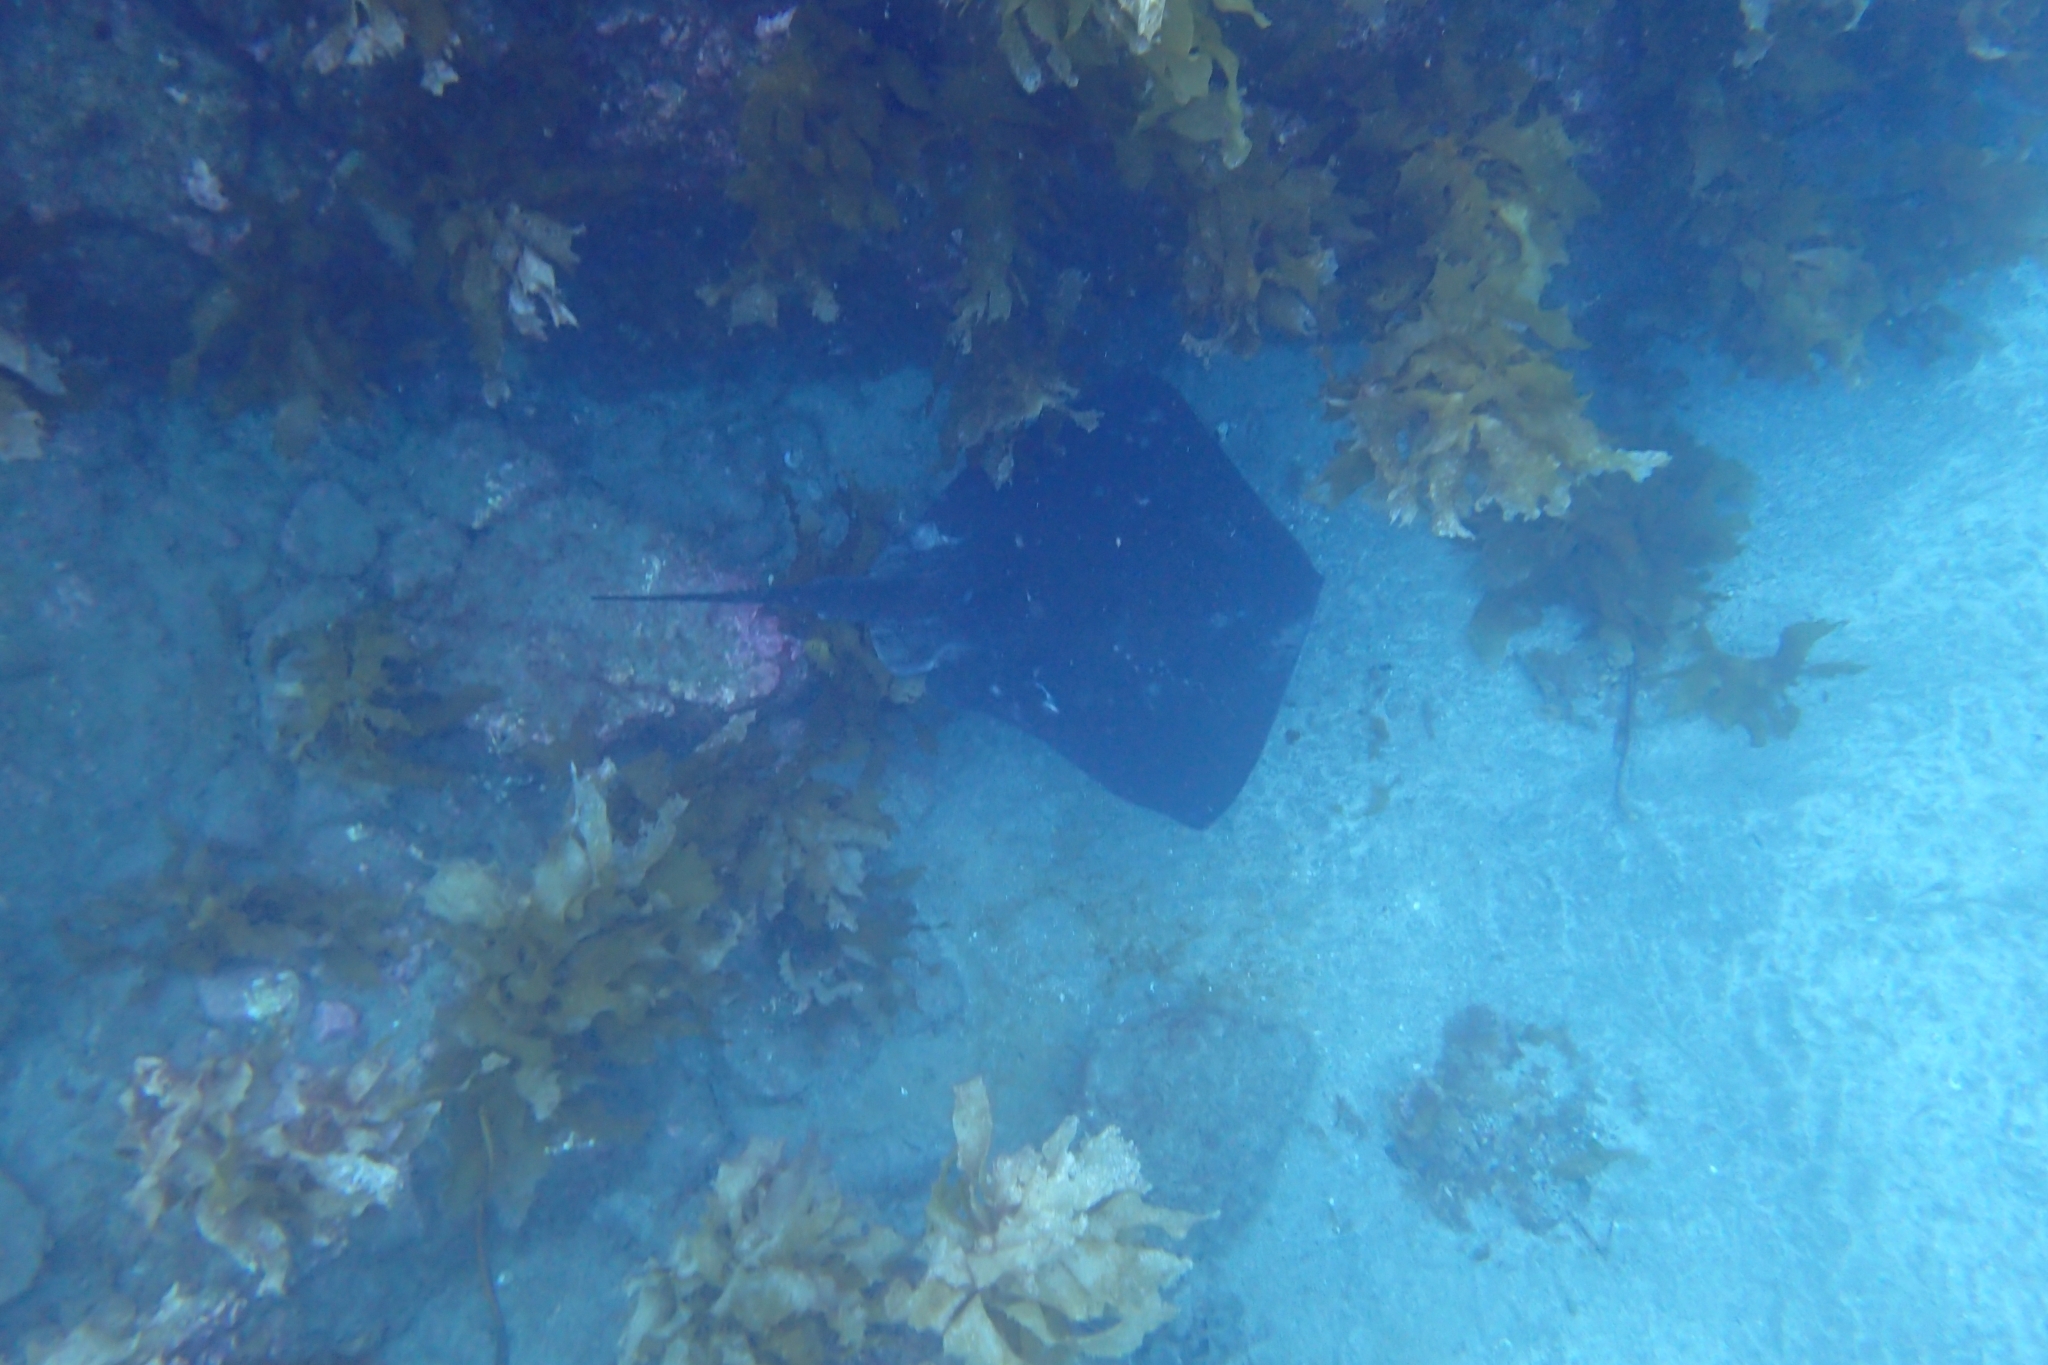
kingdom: Animalia
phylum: Chordata
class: Elasmobranchii
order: Myliobatiformes
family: Dasyatidae
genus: Bathytoshia
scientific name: Bathytoshia brevicaudata
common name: Short-tail stingray
